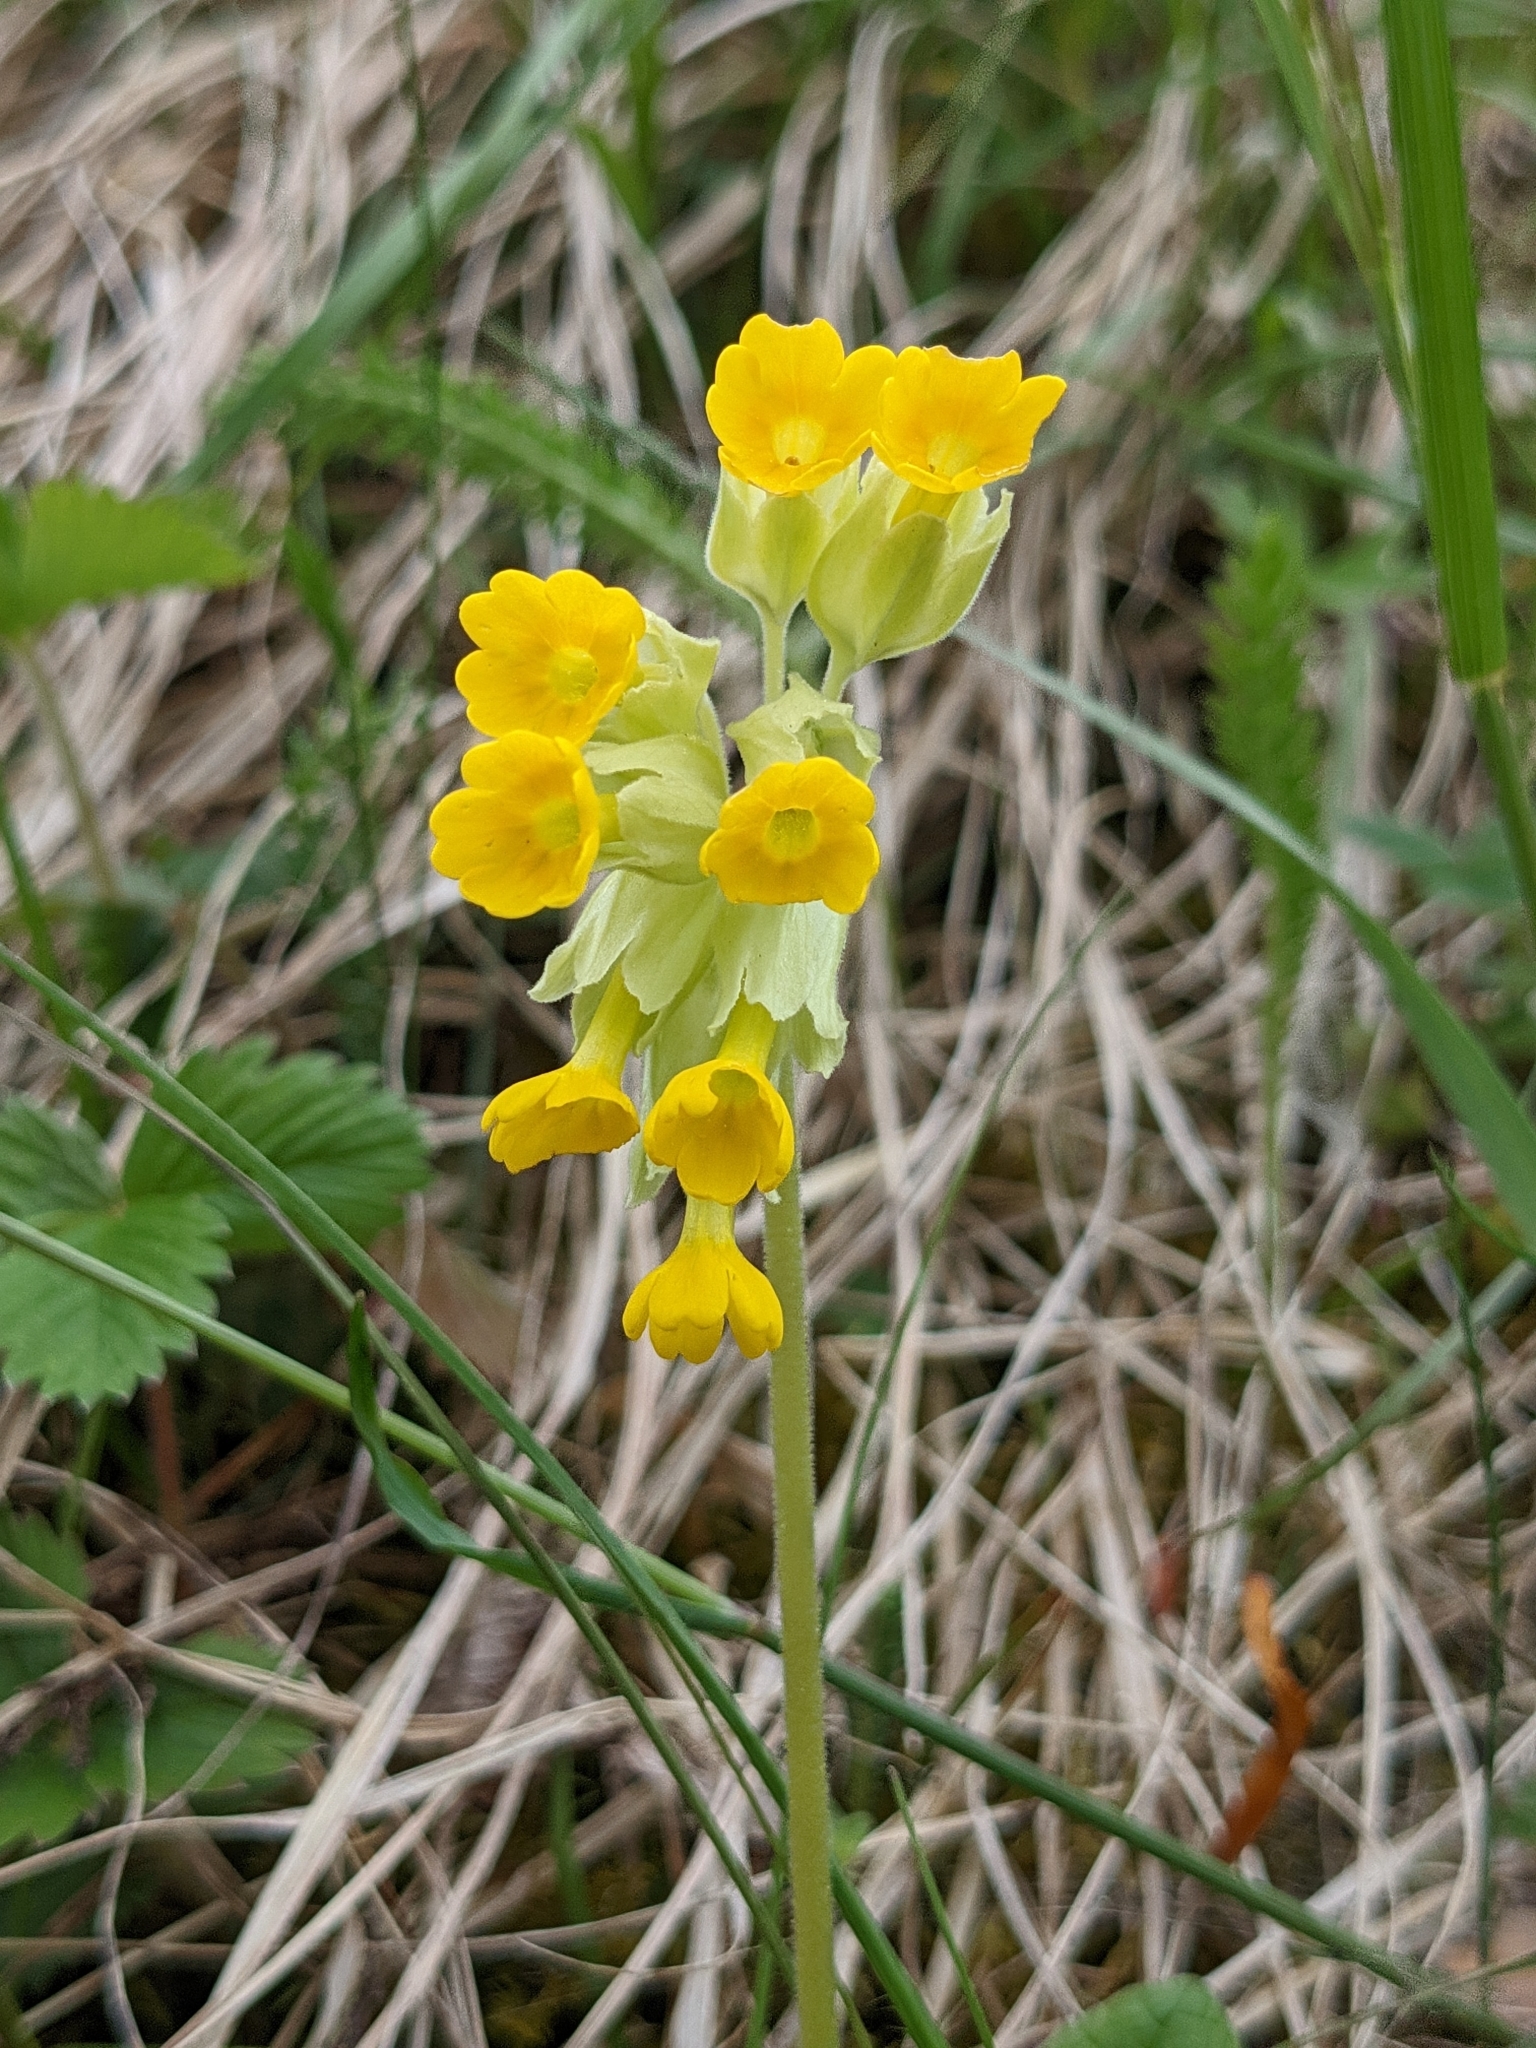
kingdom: Plantae
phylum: Tracheophyta
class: Magnoliopsida
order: Ericales
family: Primulaceae
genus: Primula
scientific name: Primula veris
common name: Cowslip
